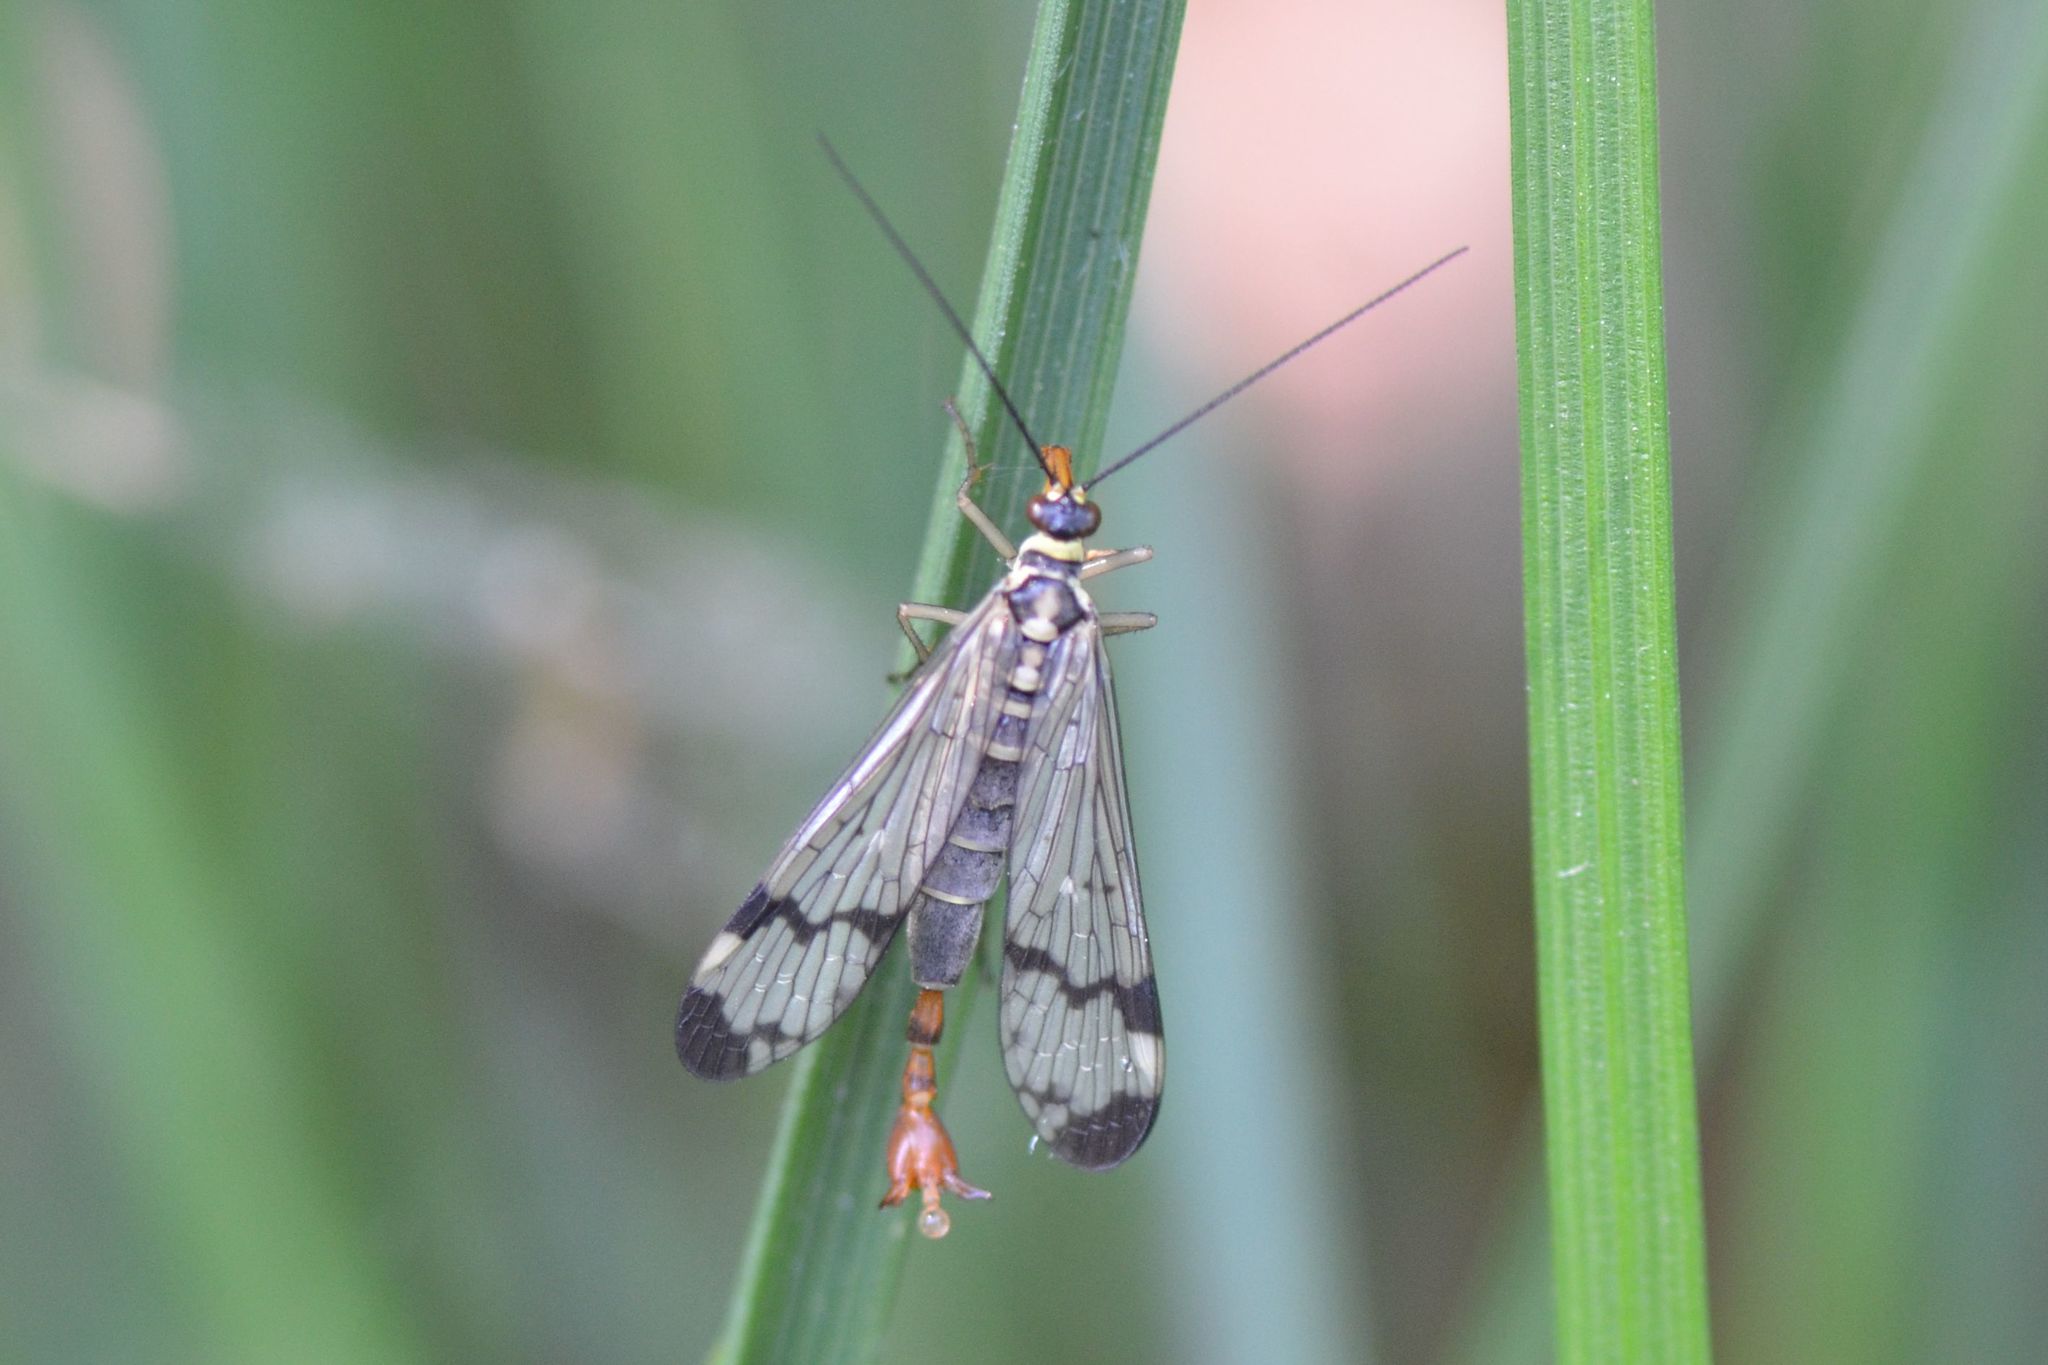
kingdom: Animalia
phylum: Arthropoda
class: Insecta
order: Mecoptera
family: Panorpidae
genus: Panorpa
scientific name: Panorpa communis
